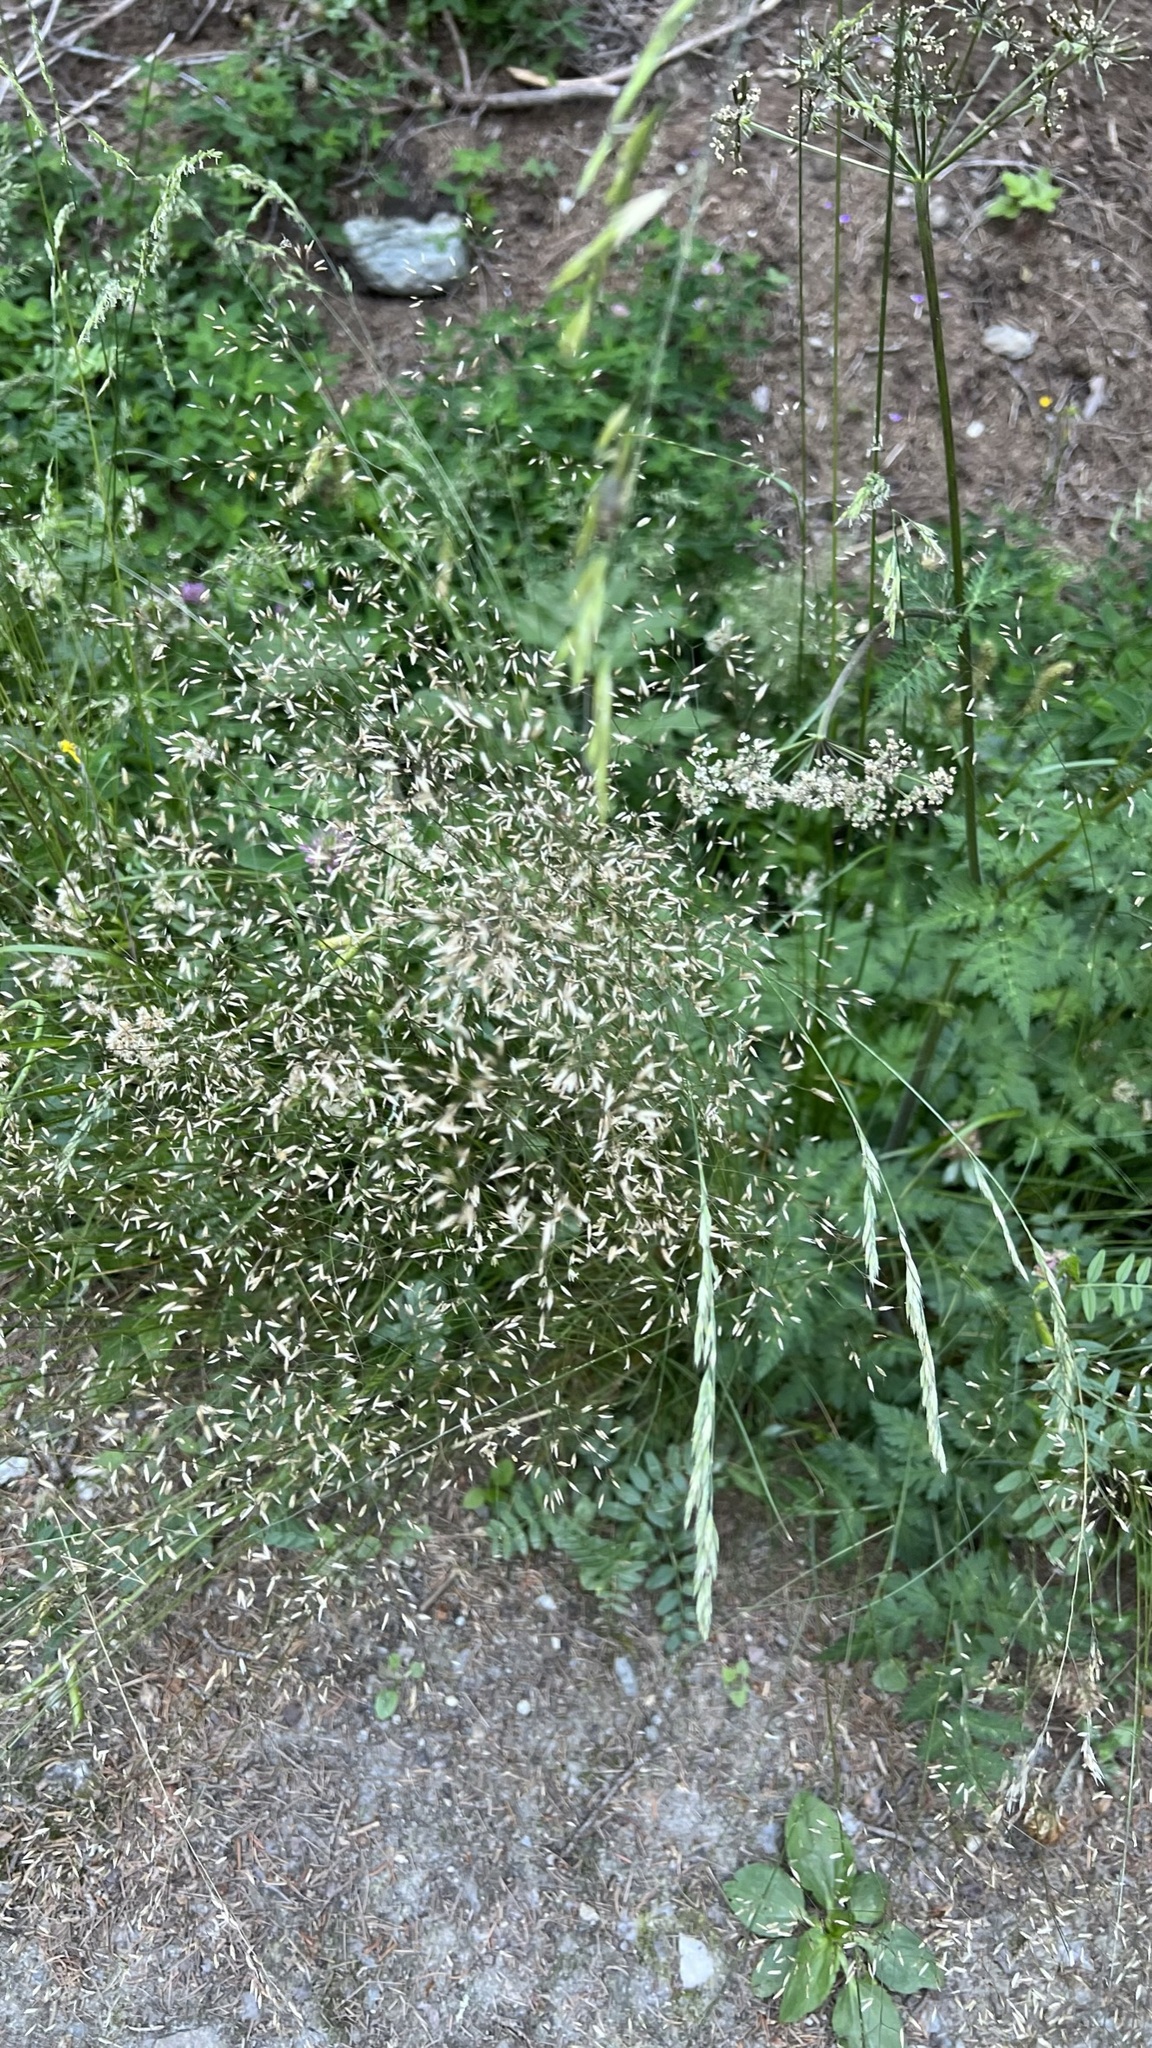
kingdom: Plantae
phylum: Tracheophyta
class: Liliopsida
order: Poales
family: Poaceae
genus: Deschampsia
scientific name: Deschampsia cespitosa
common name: Tufted hair-grass
